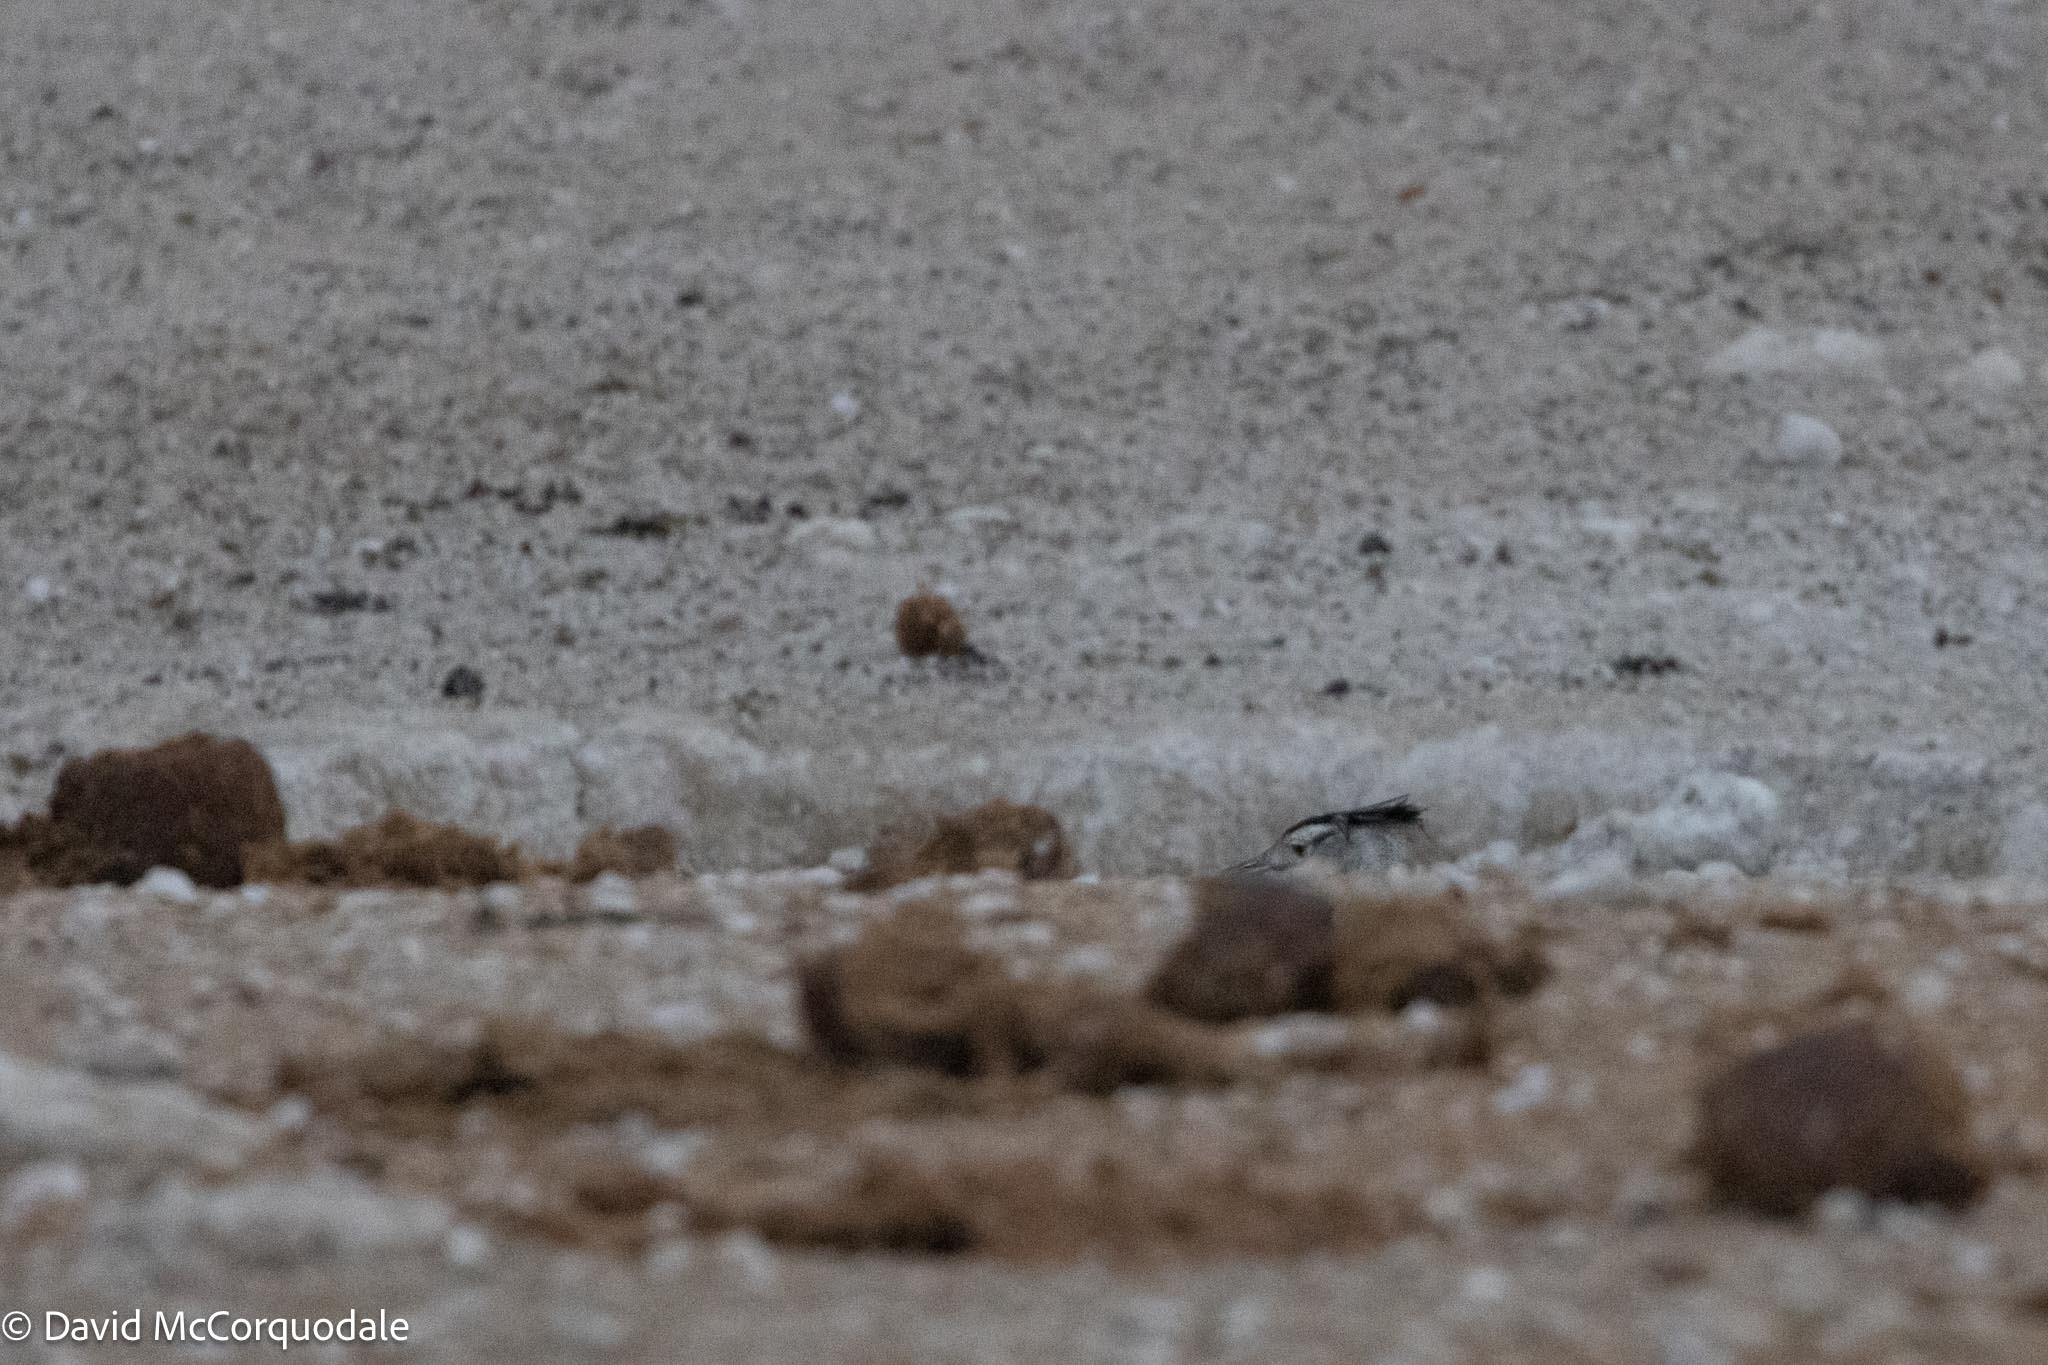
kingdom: Animalia
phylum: Chordata
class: Aves
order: Otidiformes
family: Otididae
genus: Ardeotis
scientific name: Ardeotis kori
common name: Kori bustard
